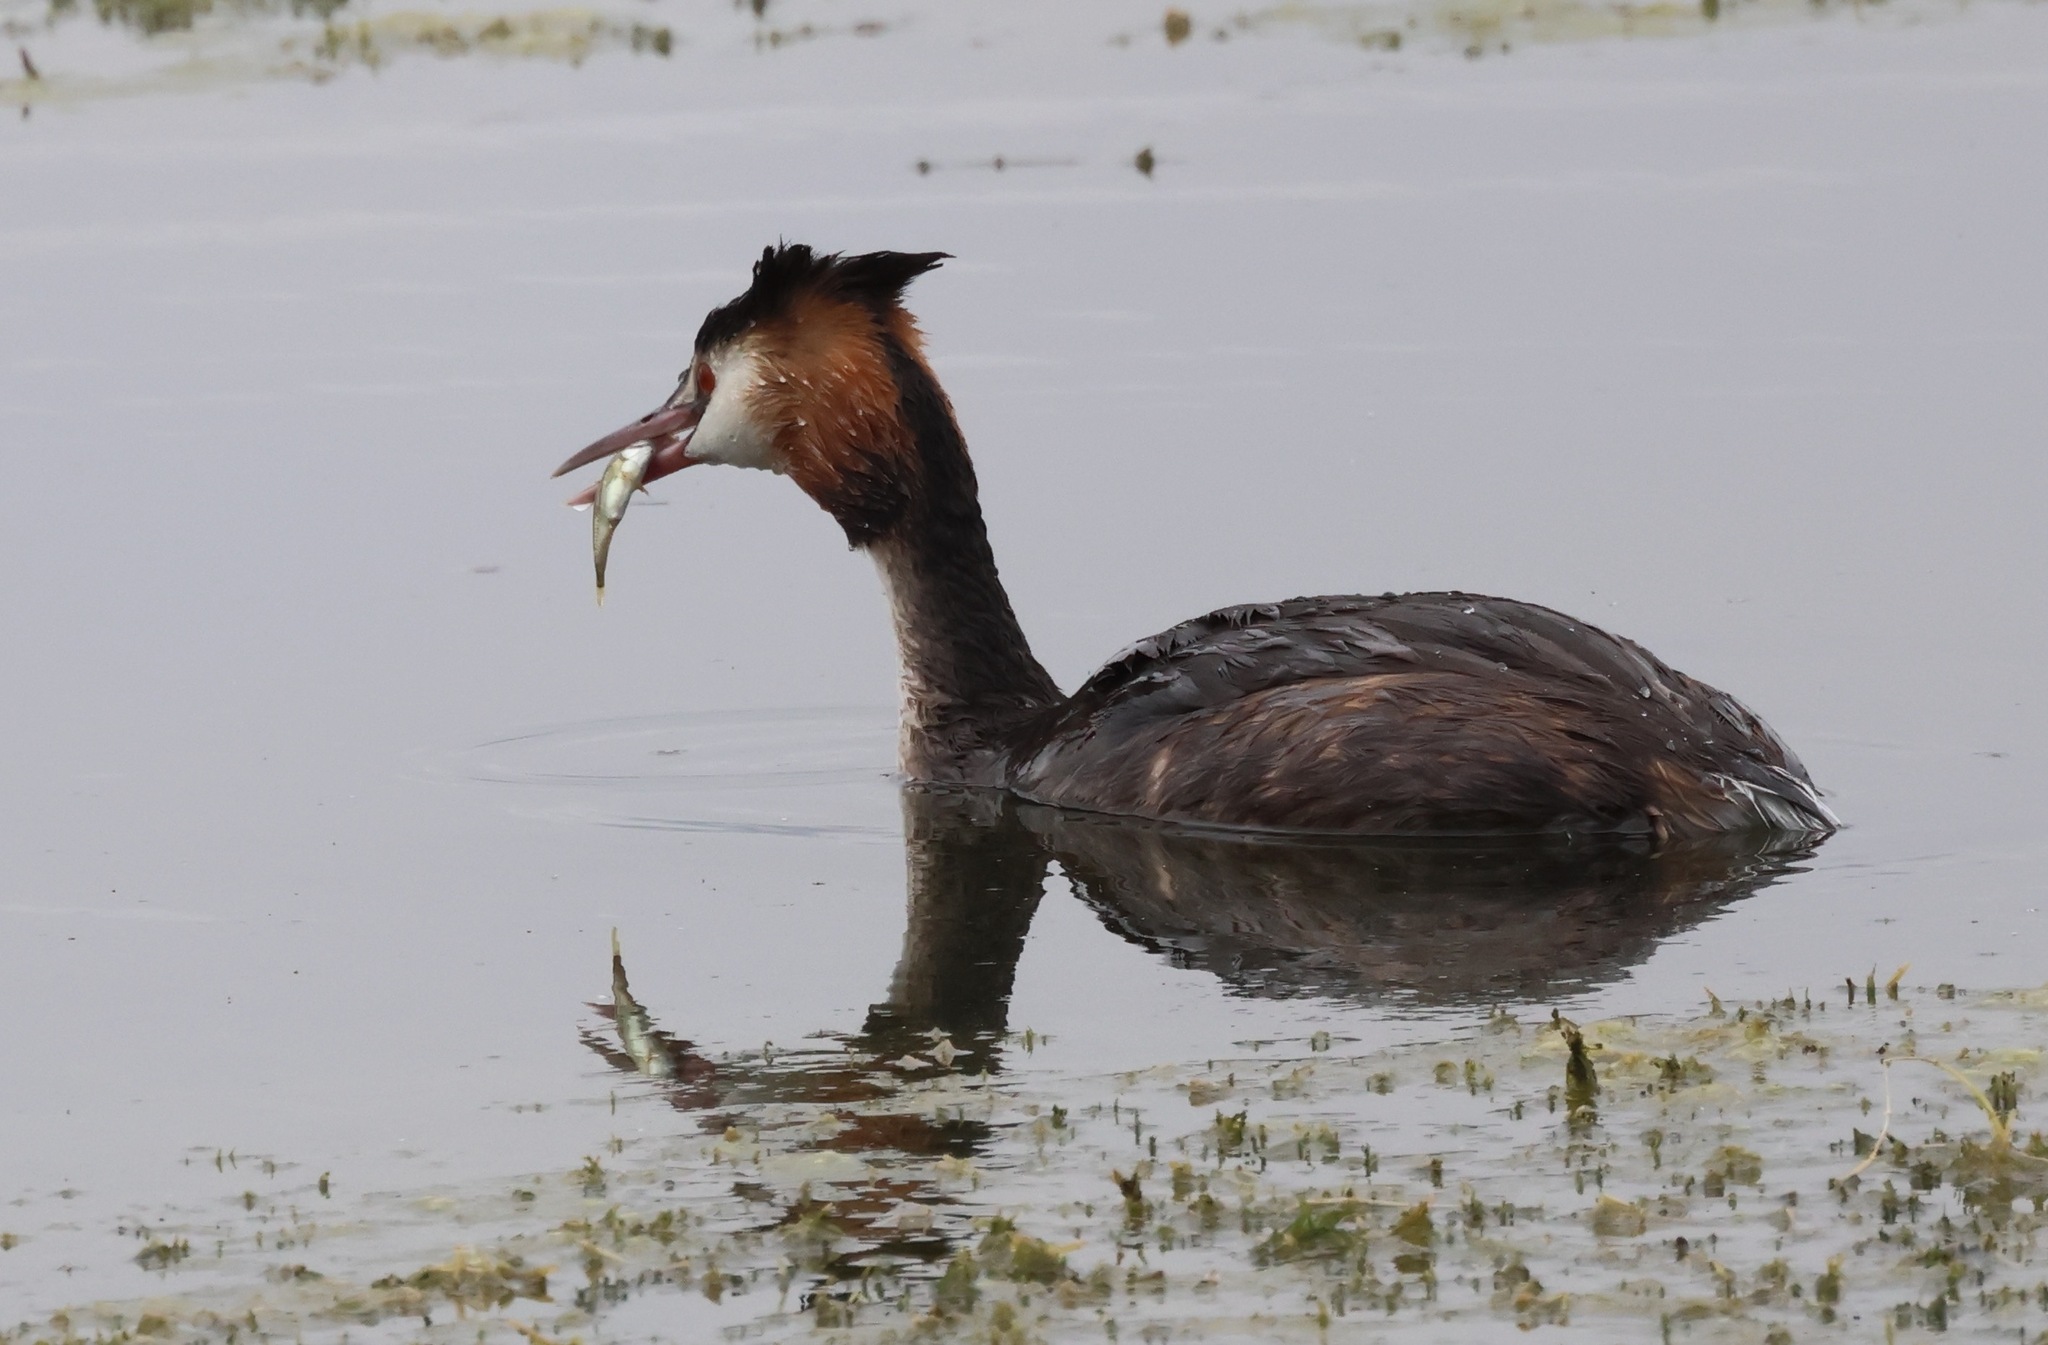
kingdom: Animalia
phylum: Chordata
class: Aves
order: Podicipediformes
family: Podicipedidae
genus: Podiceps
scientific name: Podiceps cristatus
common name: Great crested grebe
